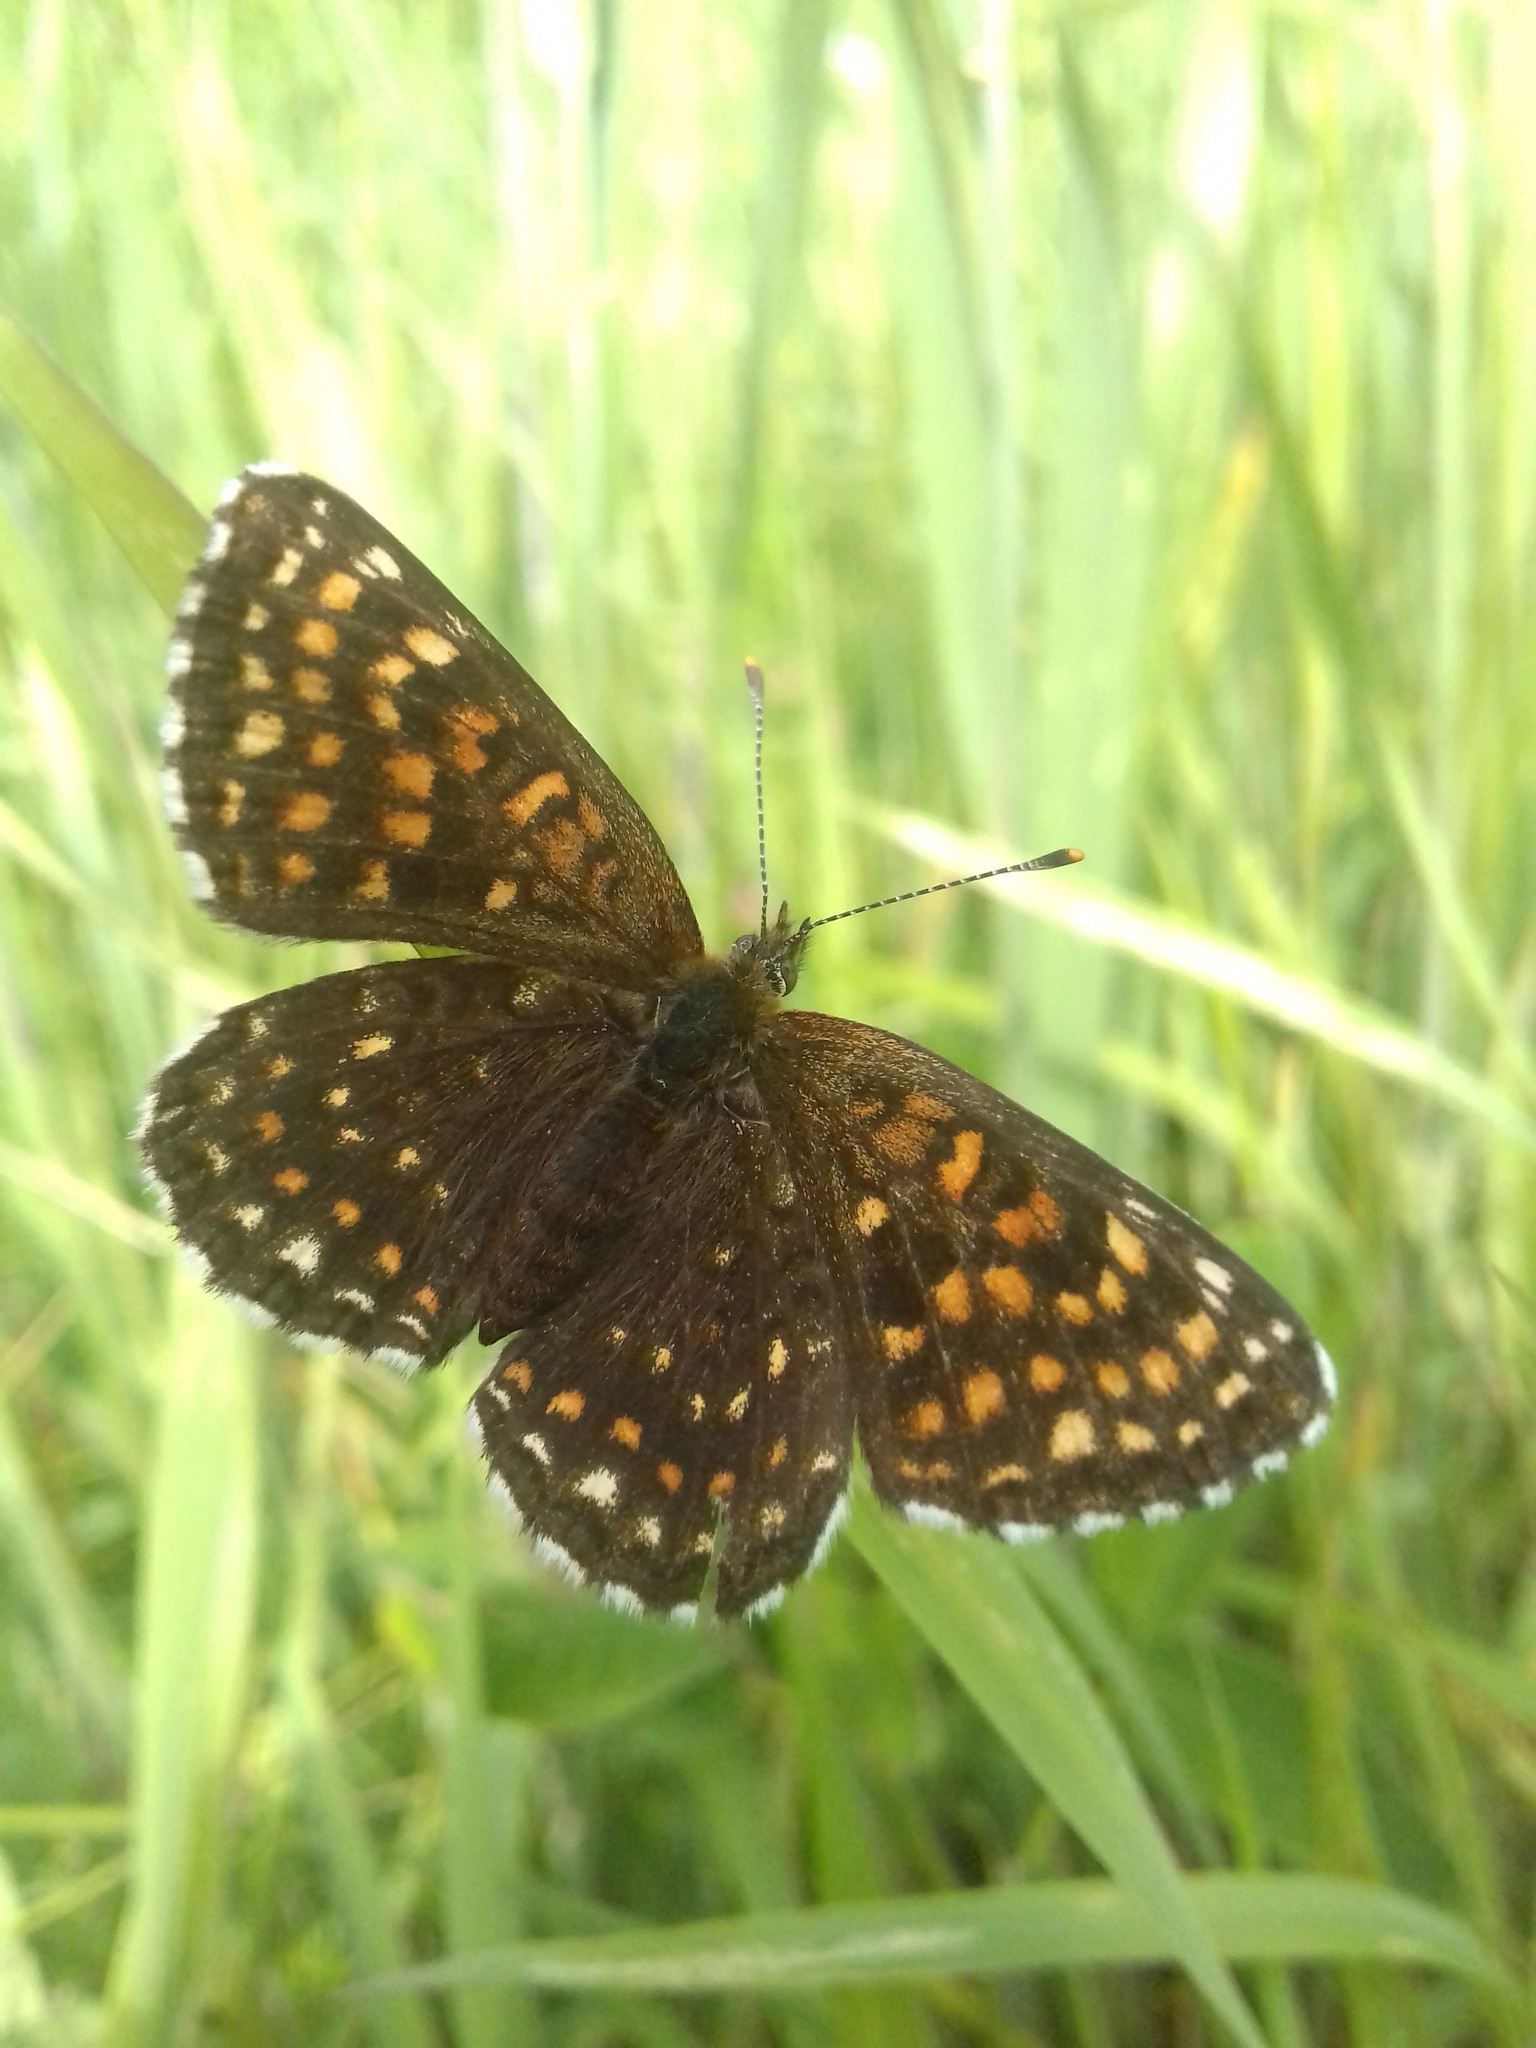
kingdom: Animalia
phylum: Arthropoda
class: Insecta
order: Lepidoptera
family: Nymphalidae
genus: Melitaea
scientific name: Melitaea diamina
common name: False heath fritillary
